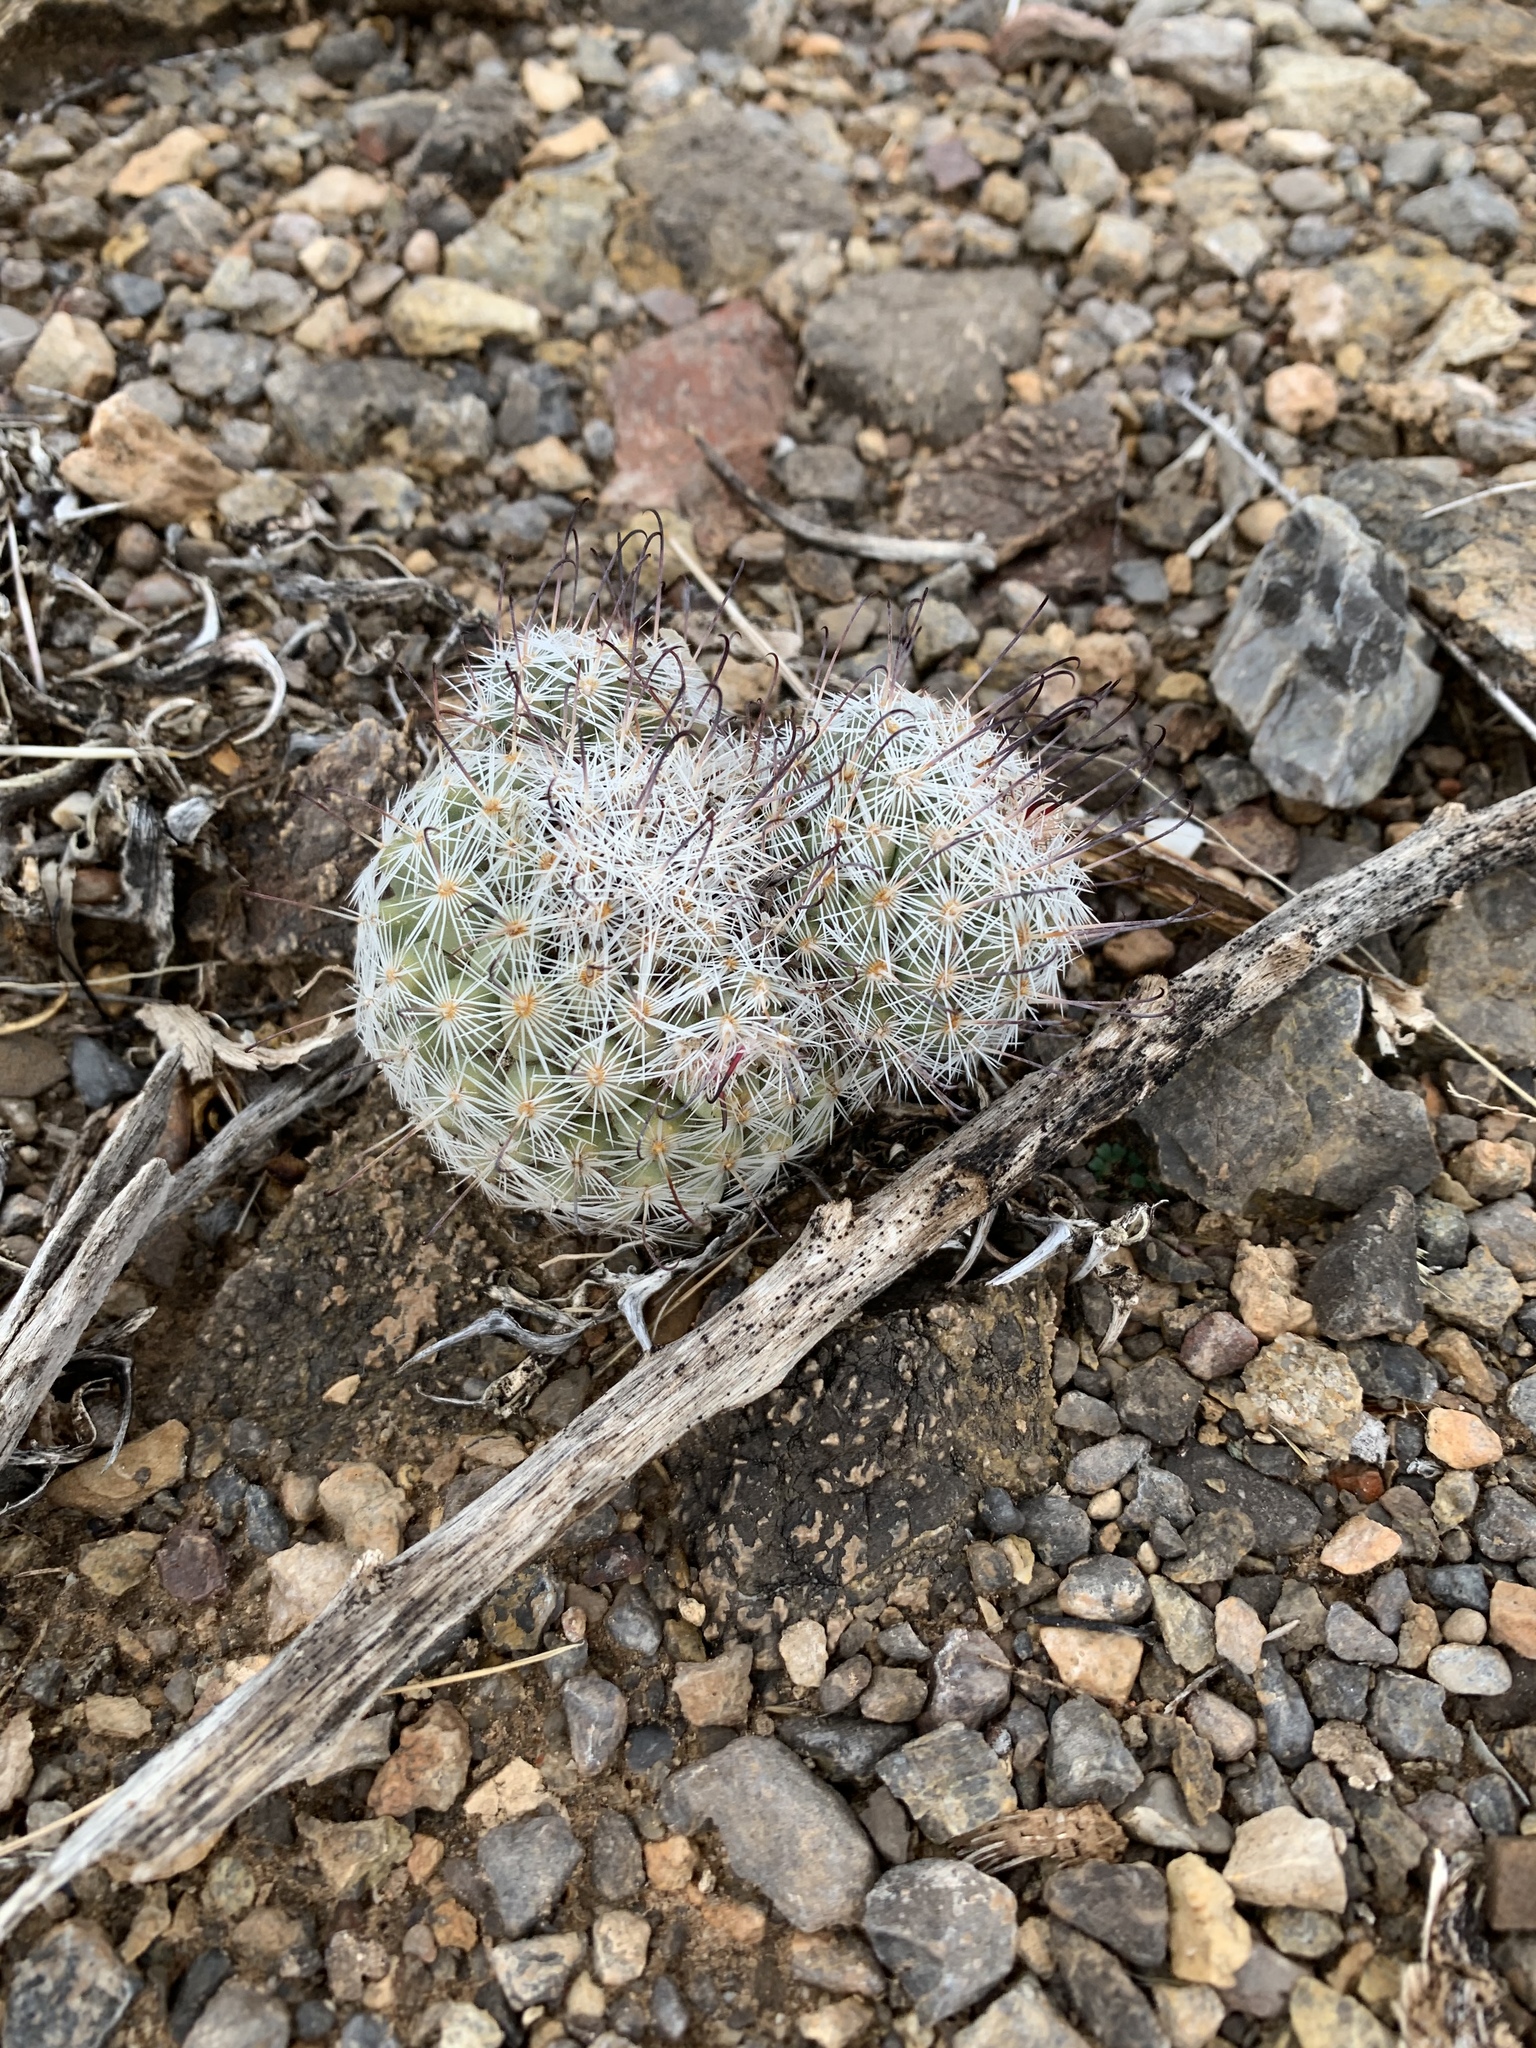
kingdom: Plantae
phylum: Tracheophyta
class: Magnoliopsida
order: Caryophyllales
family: Cactaceae
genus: Cochemiea
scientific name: Cochemiea grahamii
